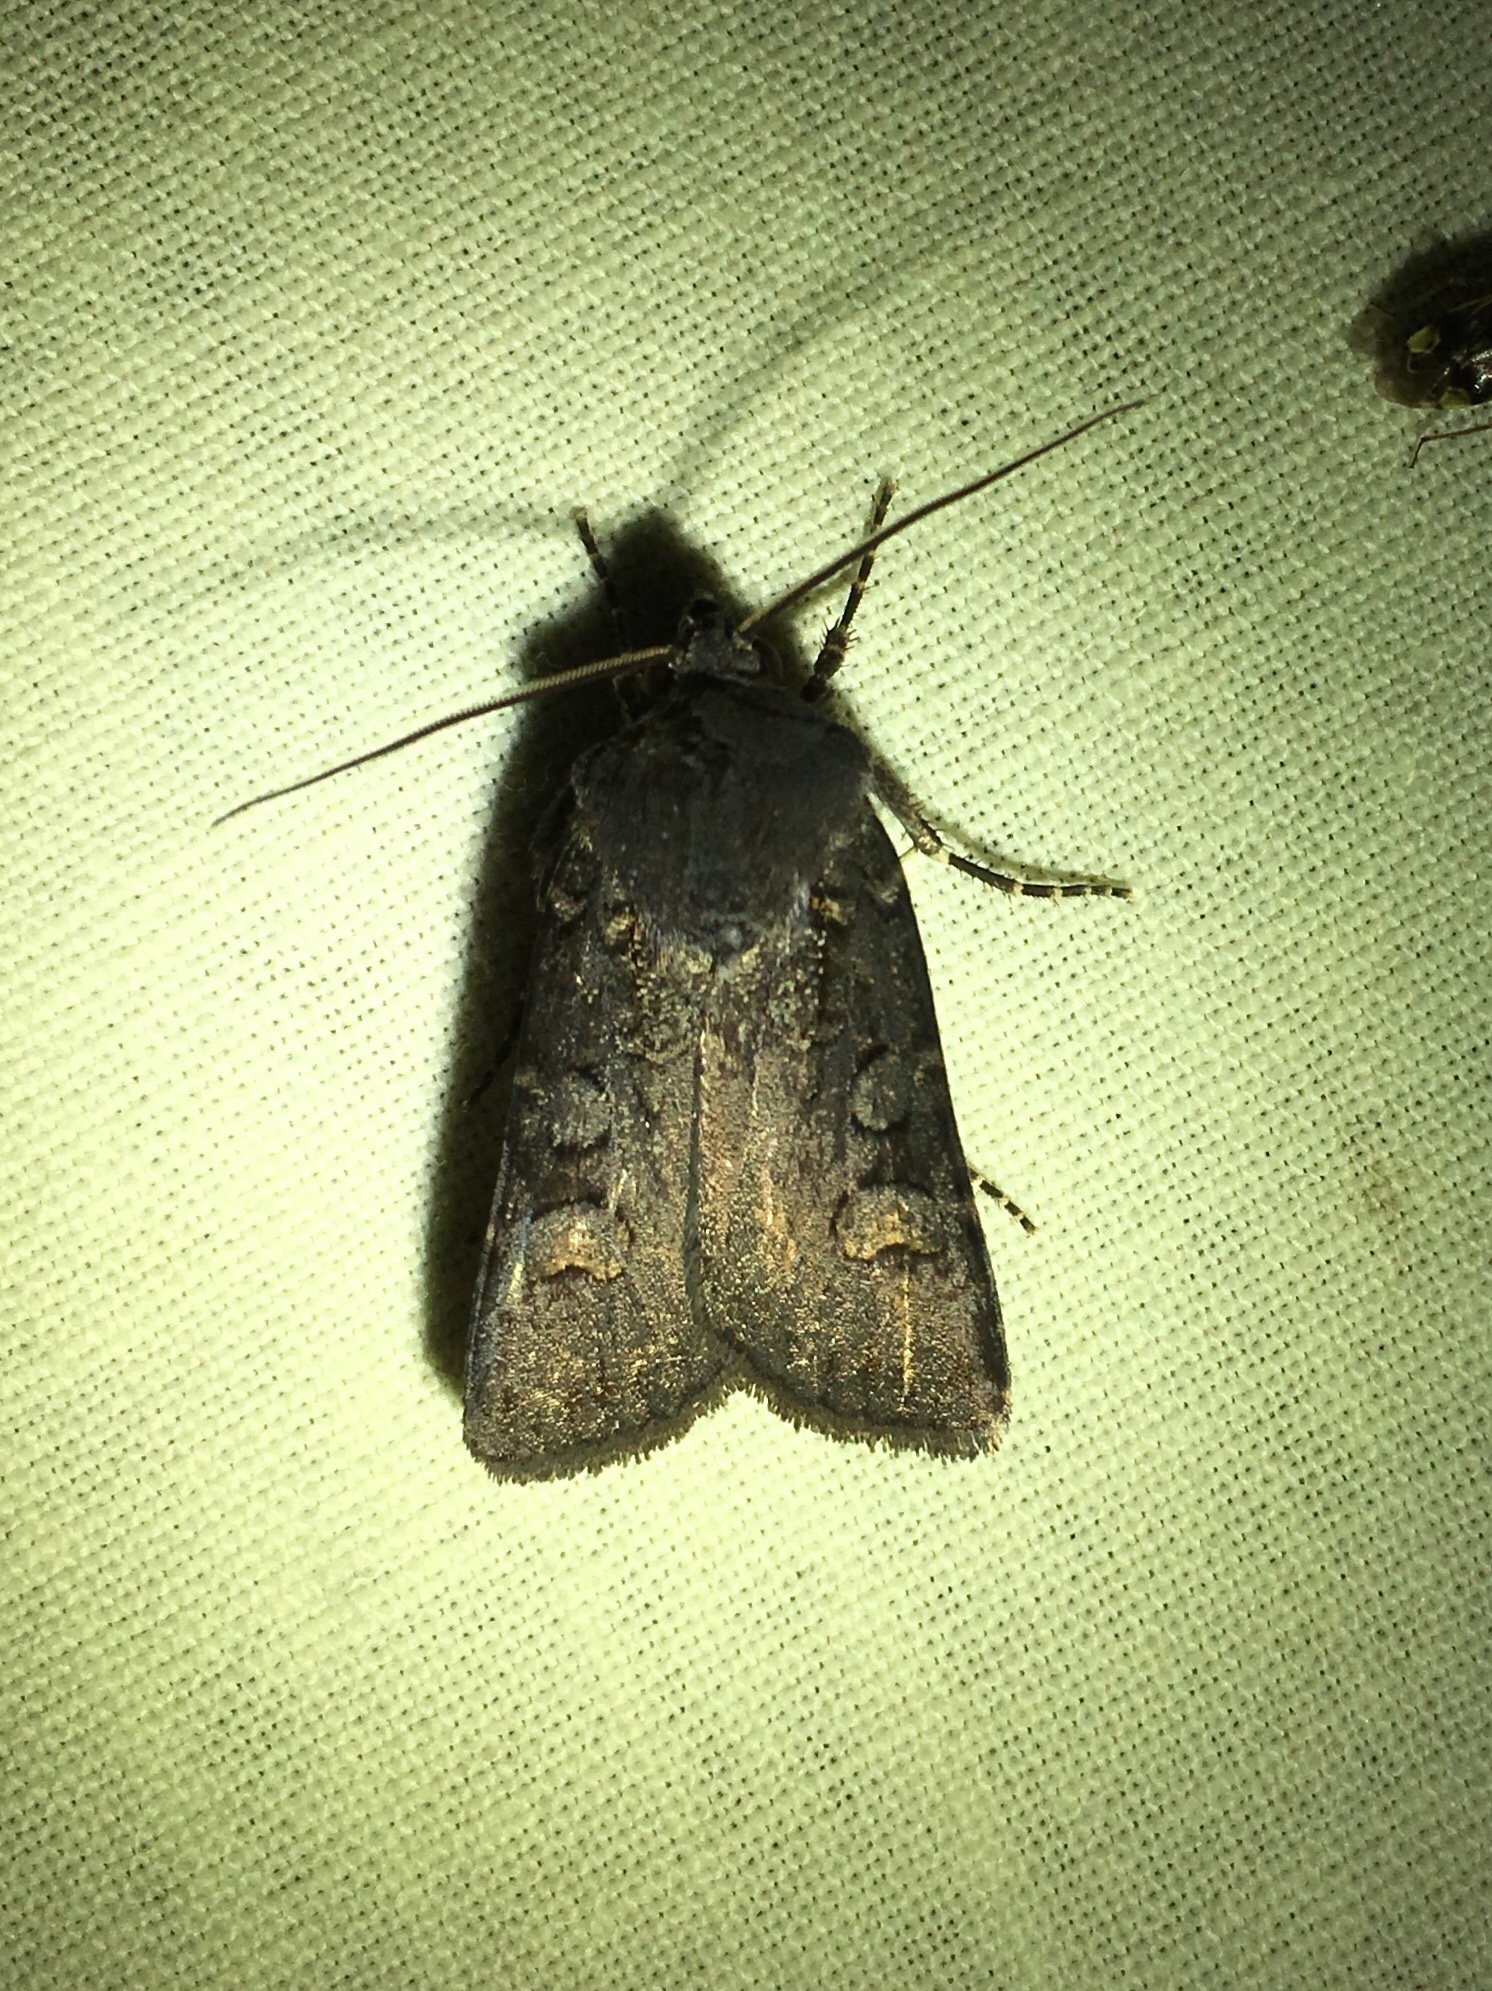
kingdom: Animalia
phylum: Arthropoda
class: Insecta
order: Lepidoptera
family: Noctuidae
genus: Euxoa
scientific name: Euxoa velleripennis
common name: Fleece-winged dart
